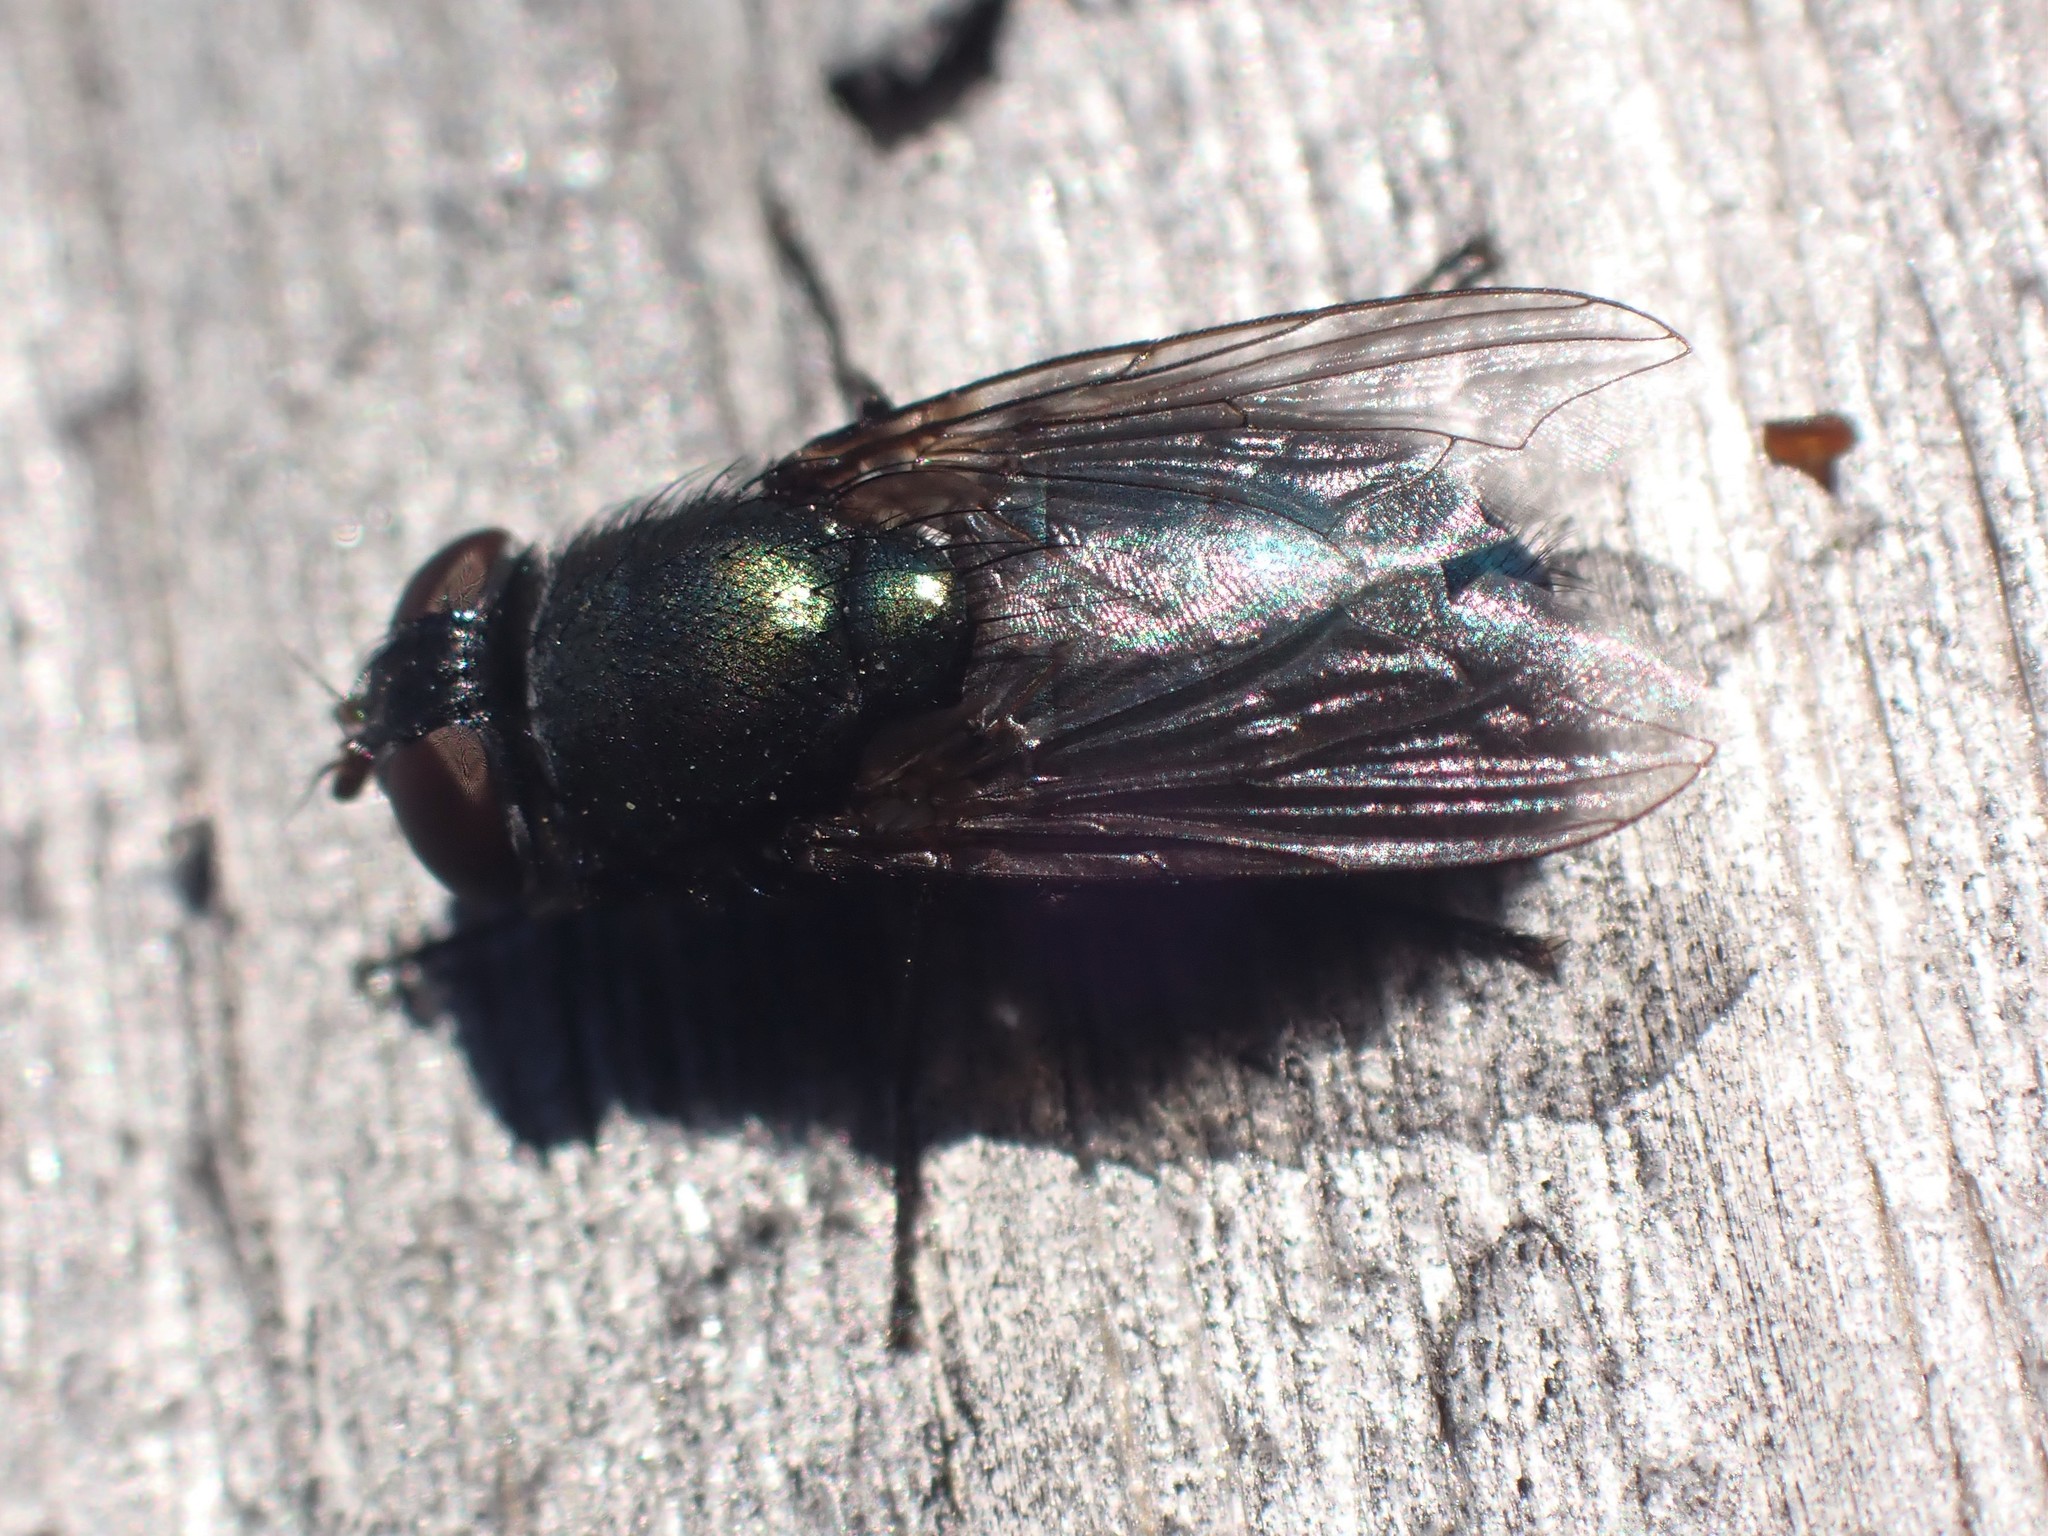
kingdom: Animalia
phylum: Arthropoda
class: Insecta
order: Diptera
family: Calliphoridae
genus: Phormia
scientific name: Phormia regina
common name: Black blow fly
